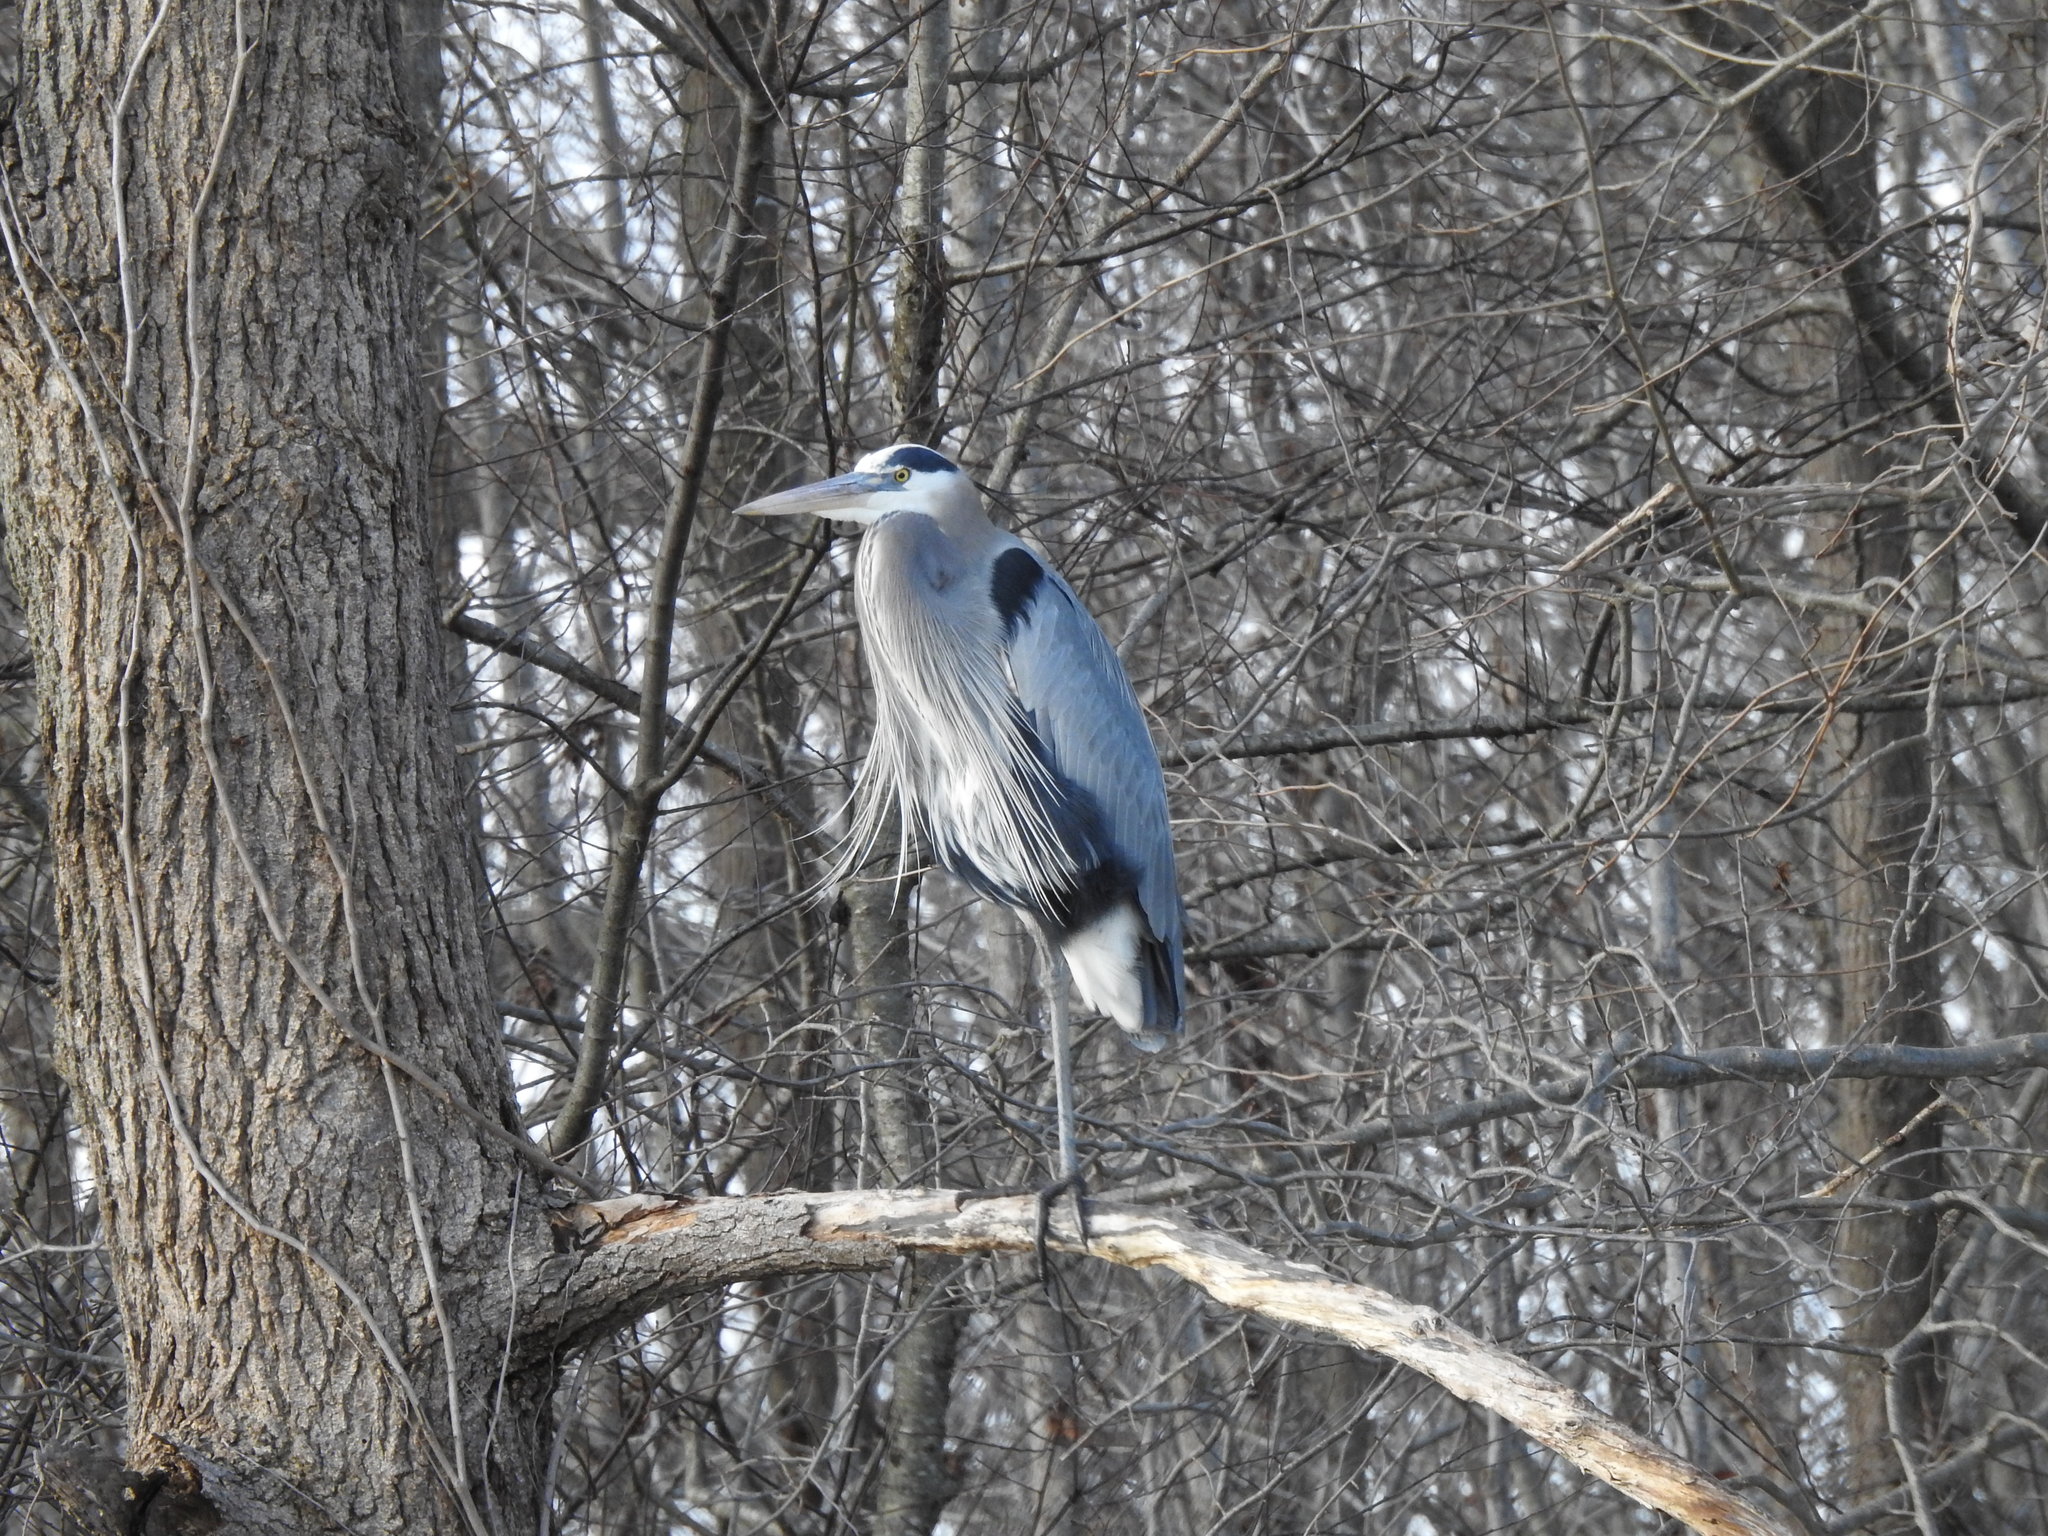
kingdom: Animalia
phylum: Chordata
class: Aves
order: Pelecaniformes
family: Ardeidae
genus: Ardea
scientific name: Ardea herodias
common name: Great blue heron
